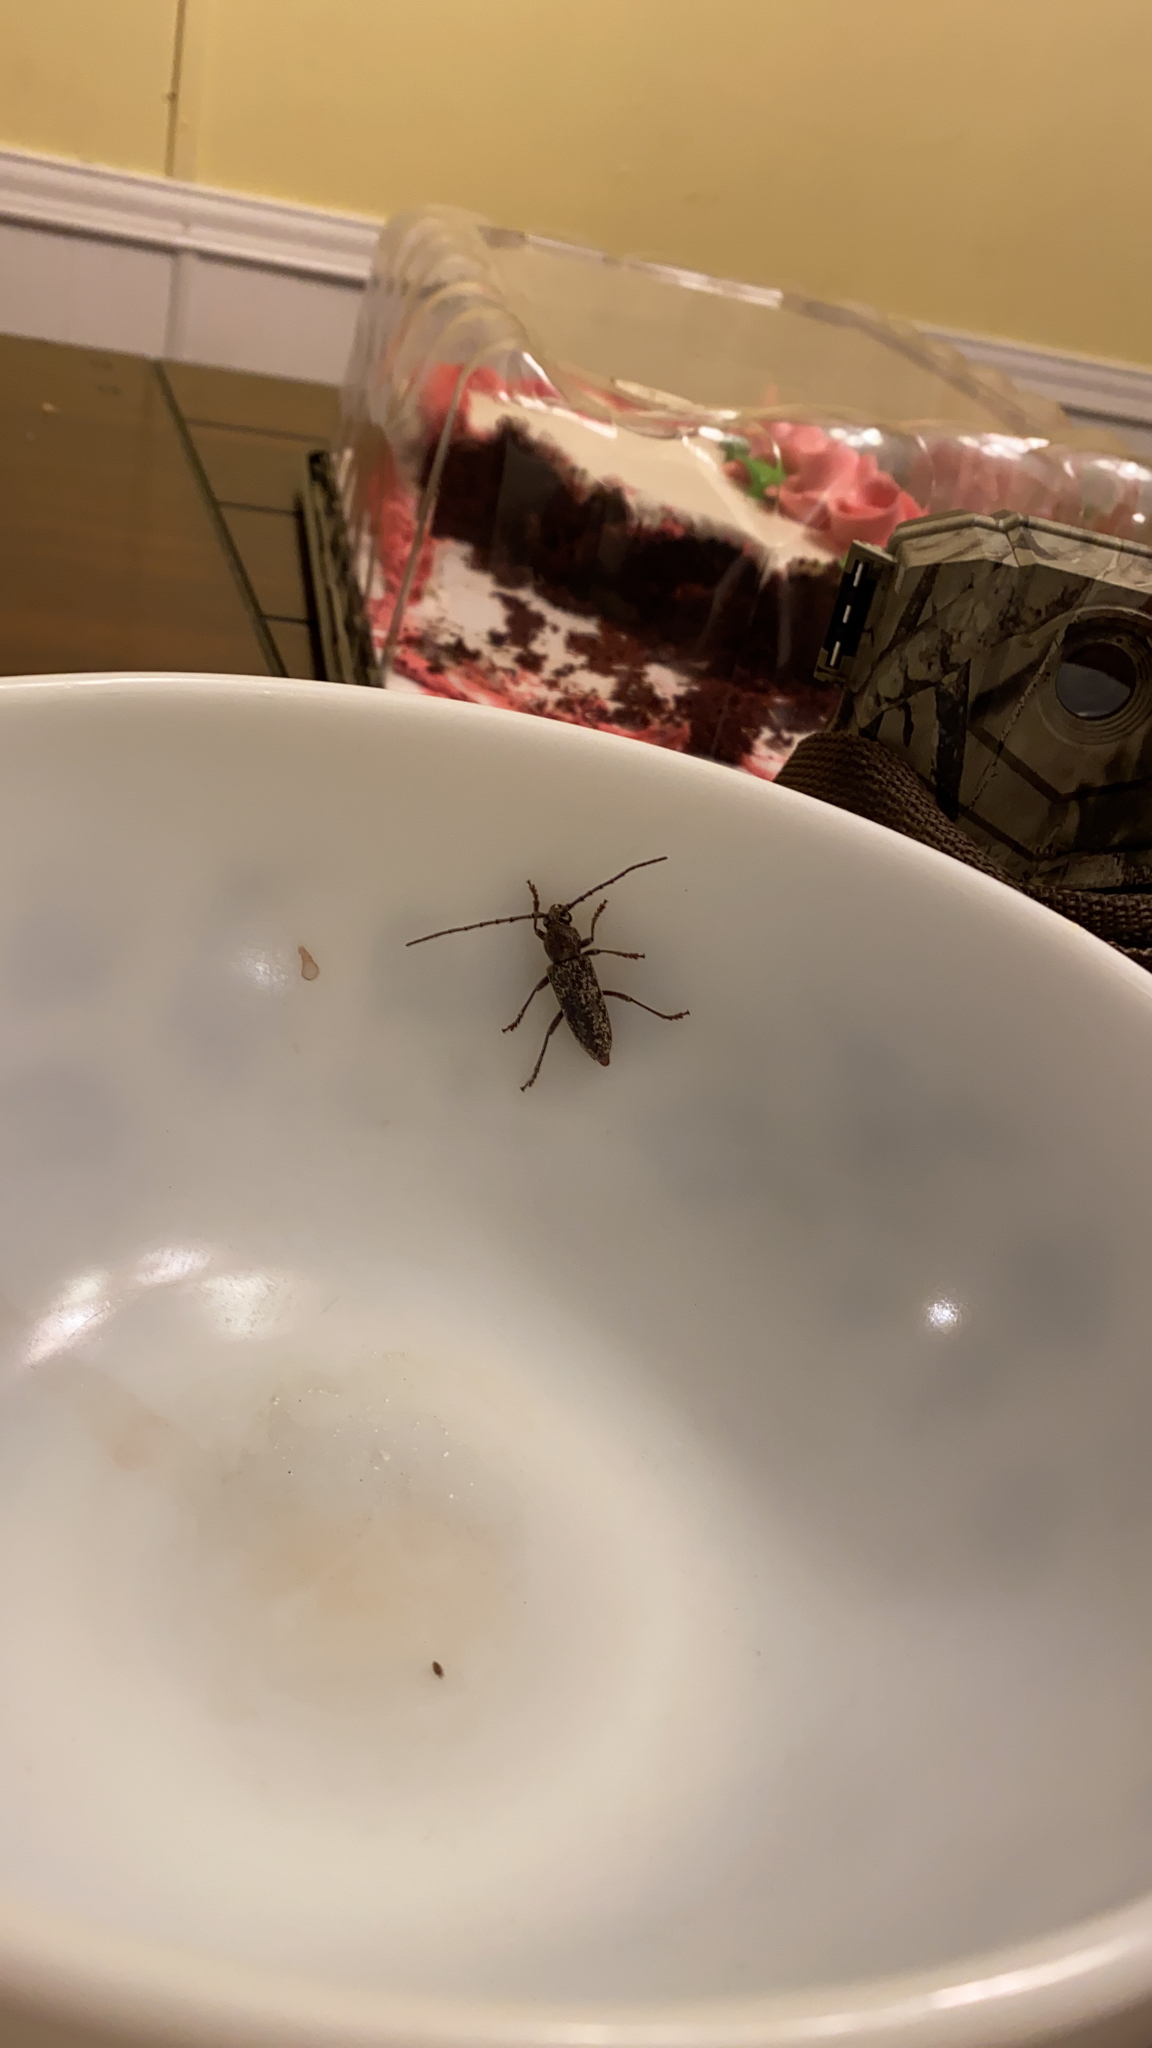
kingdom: Animalia
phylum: Arthropoda
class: Insecta
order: Coleoptera
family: Cerambycidae
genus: Enaphalodes
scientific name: Enaphalodes atomarius
